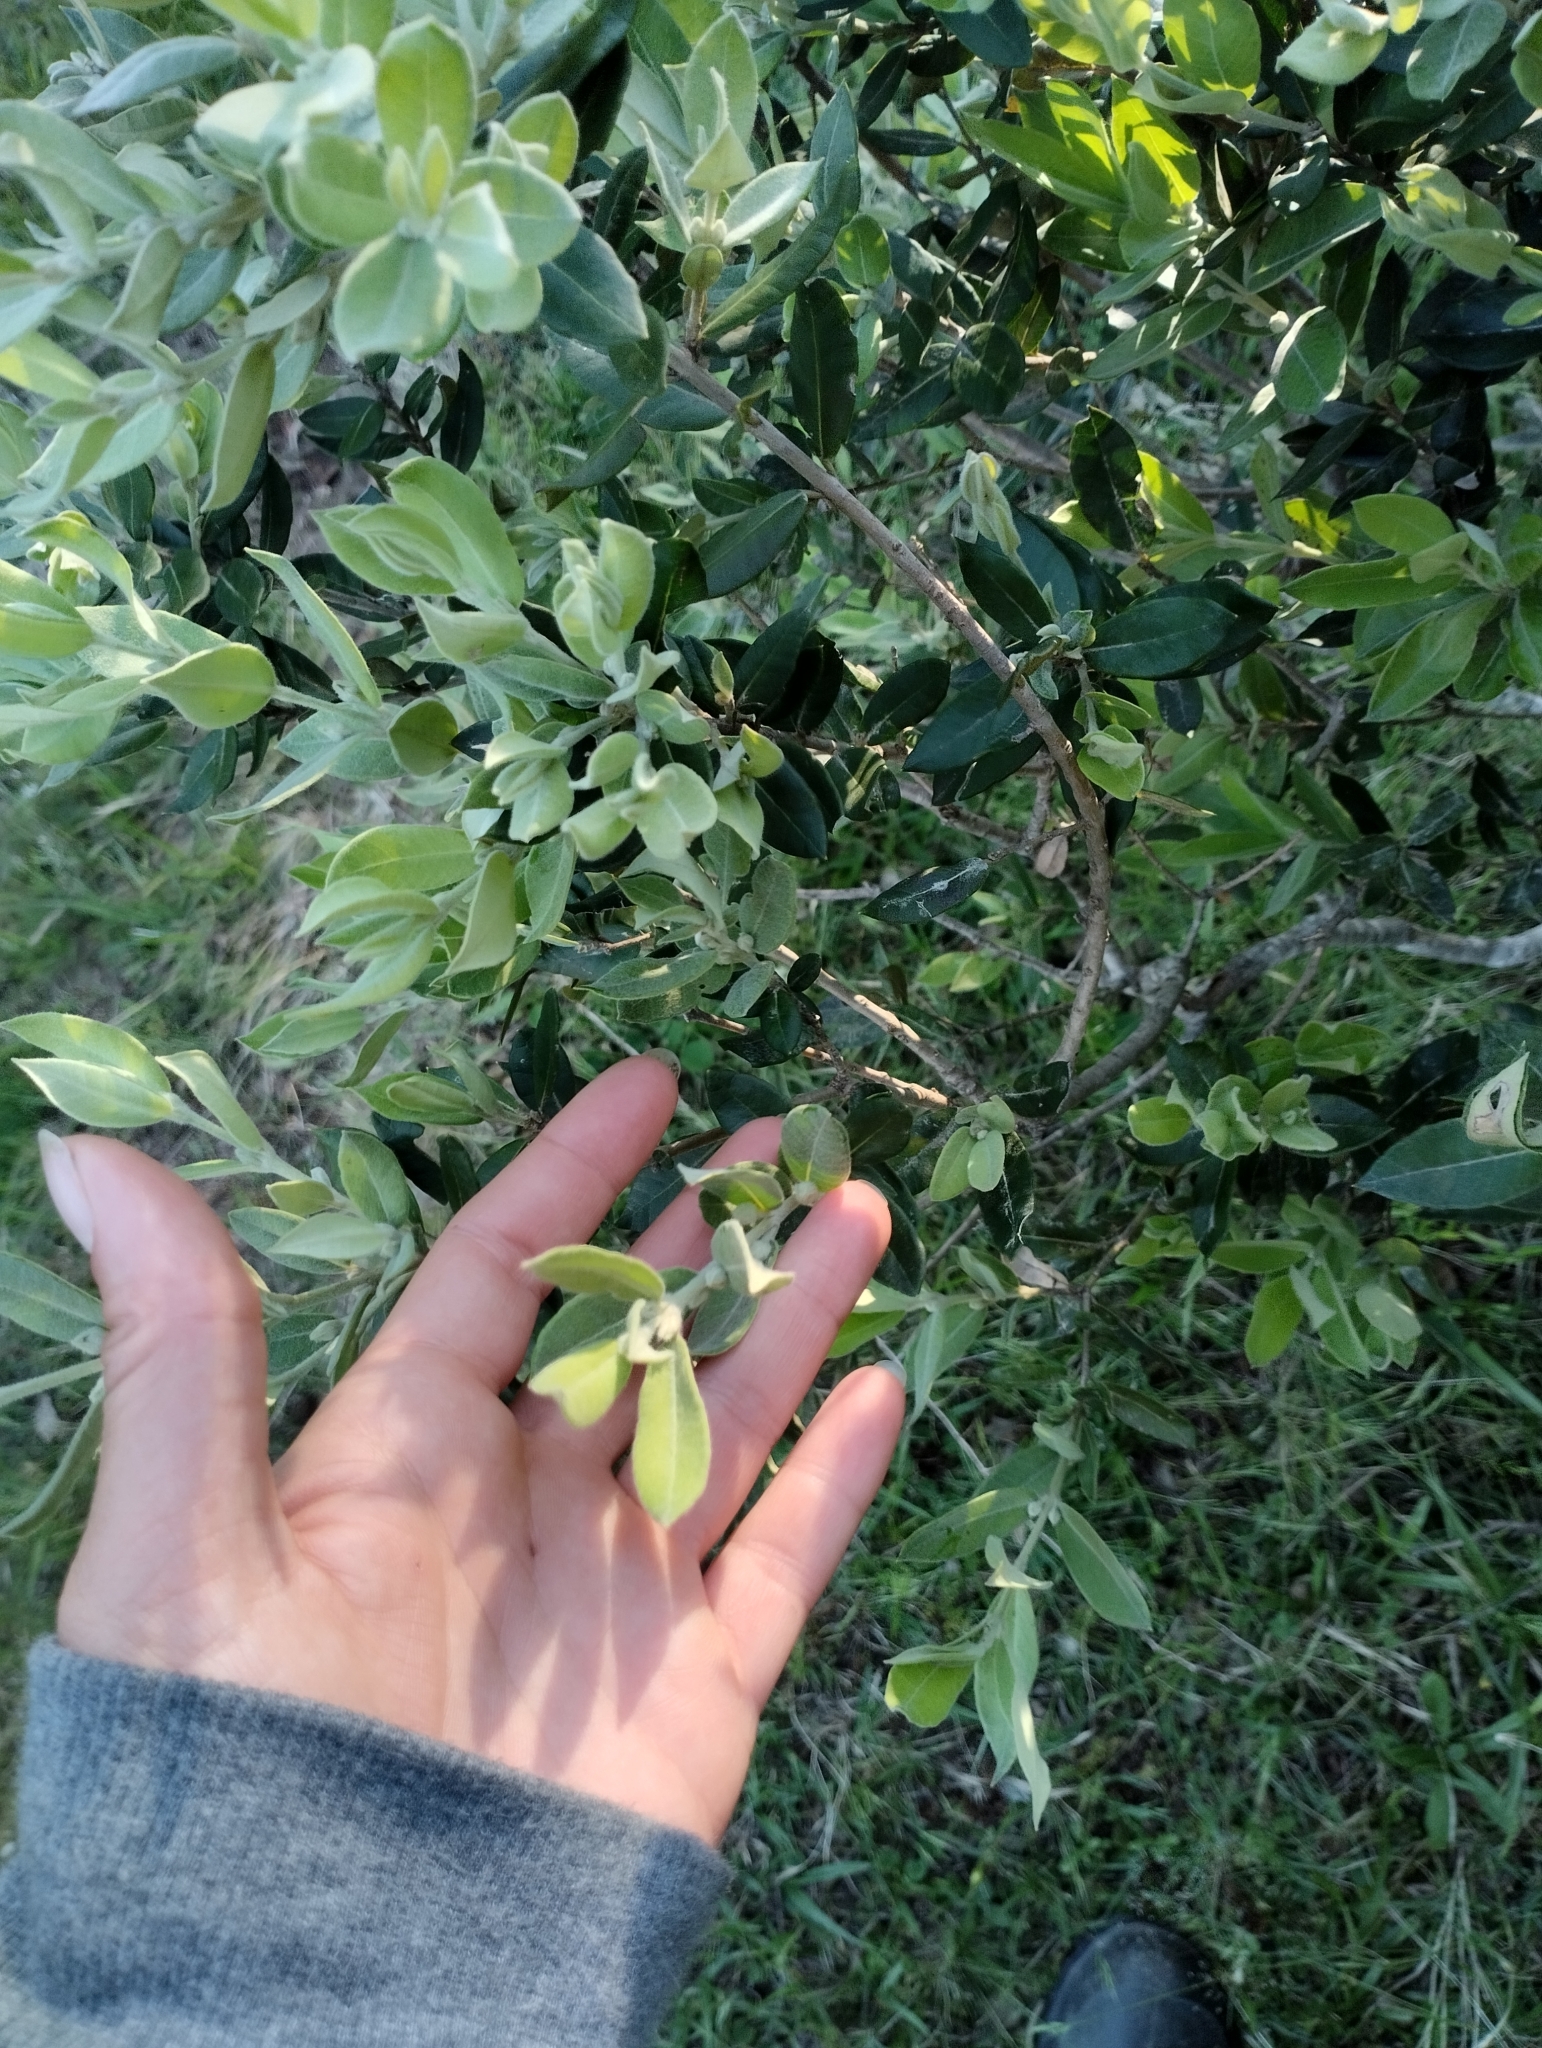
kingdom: Plantae
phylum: Tracheophyta
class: Magnoliopsida
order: Myrtales
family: Myrtaceae
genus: Myrceugenia
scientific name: Myrceugenia myrtoides
